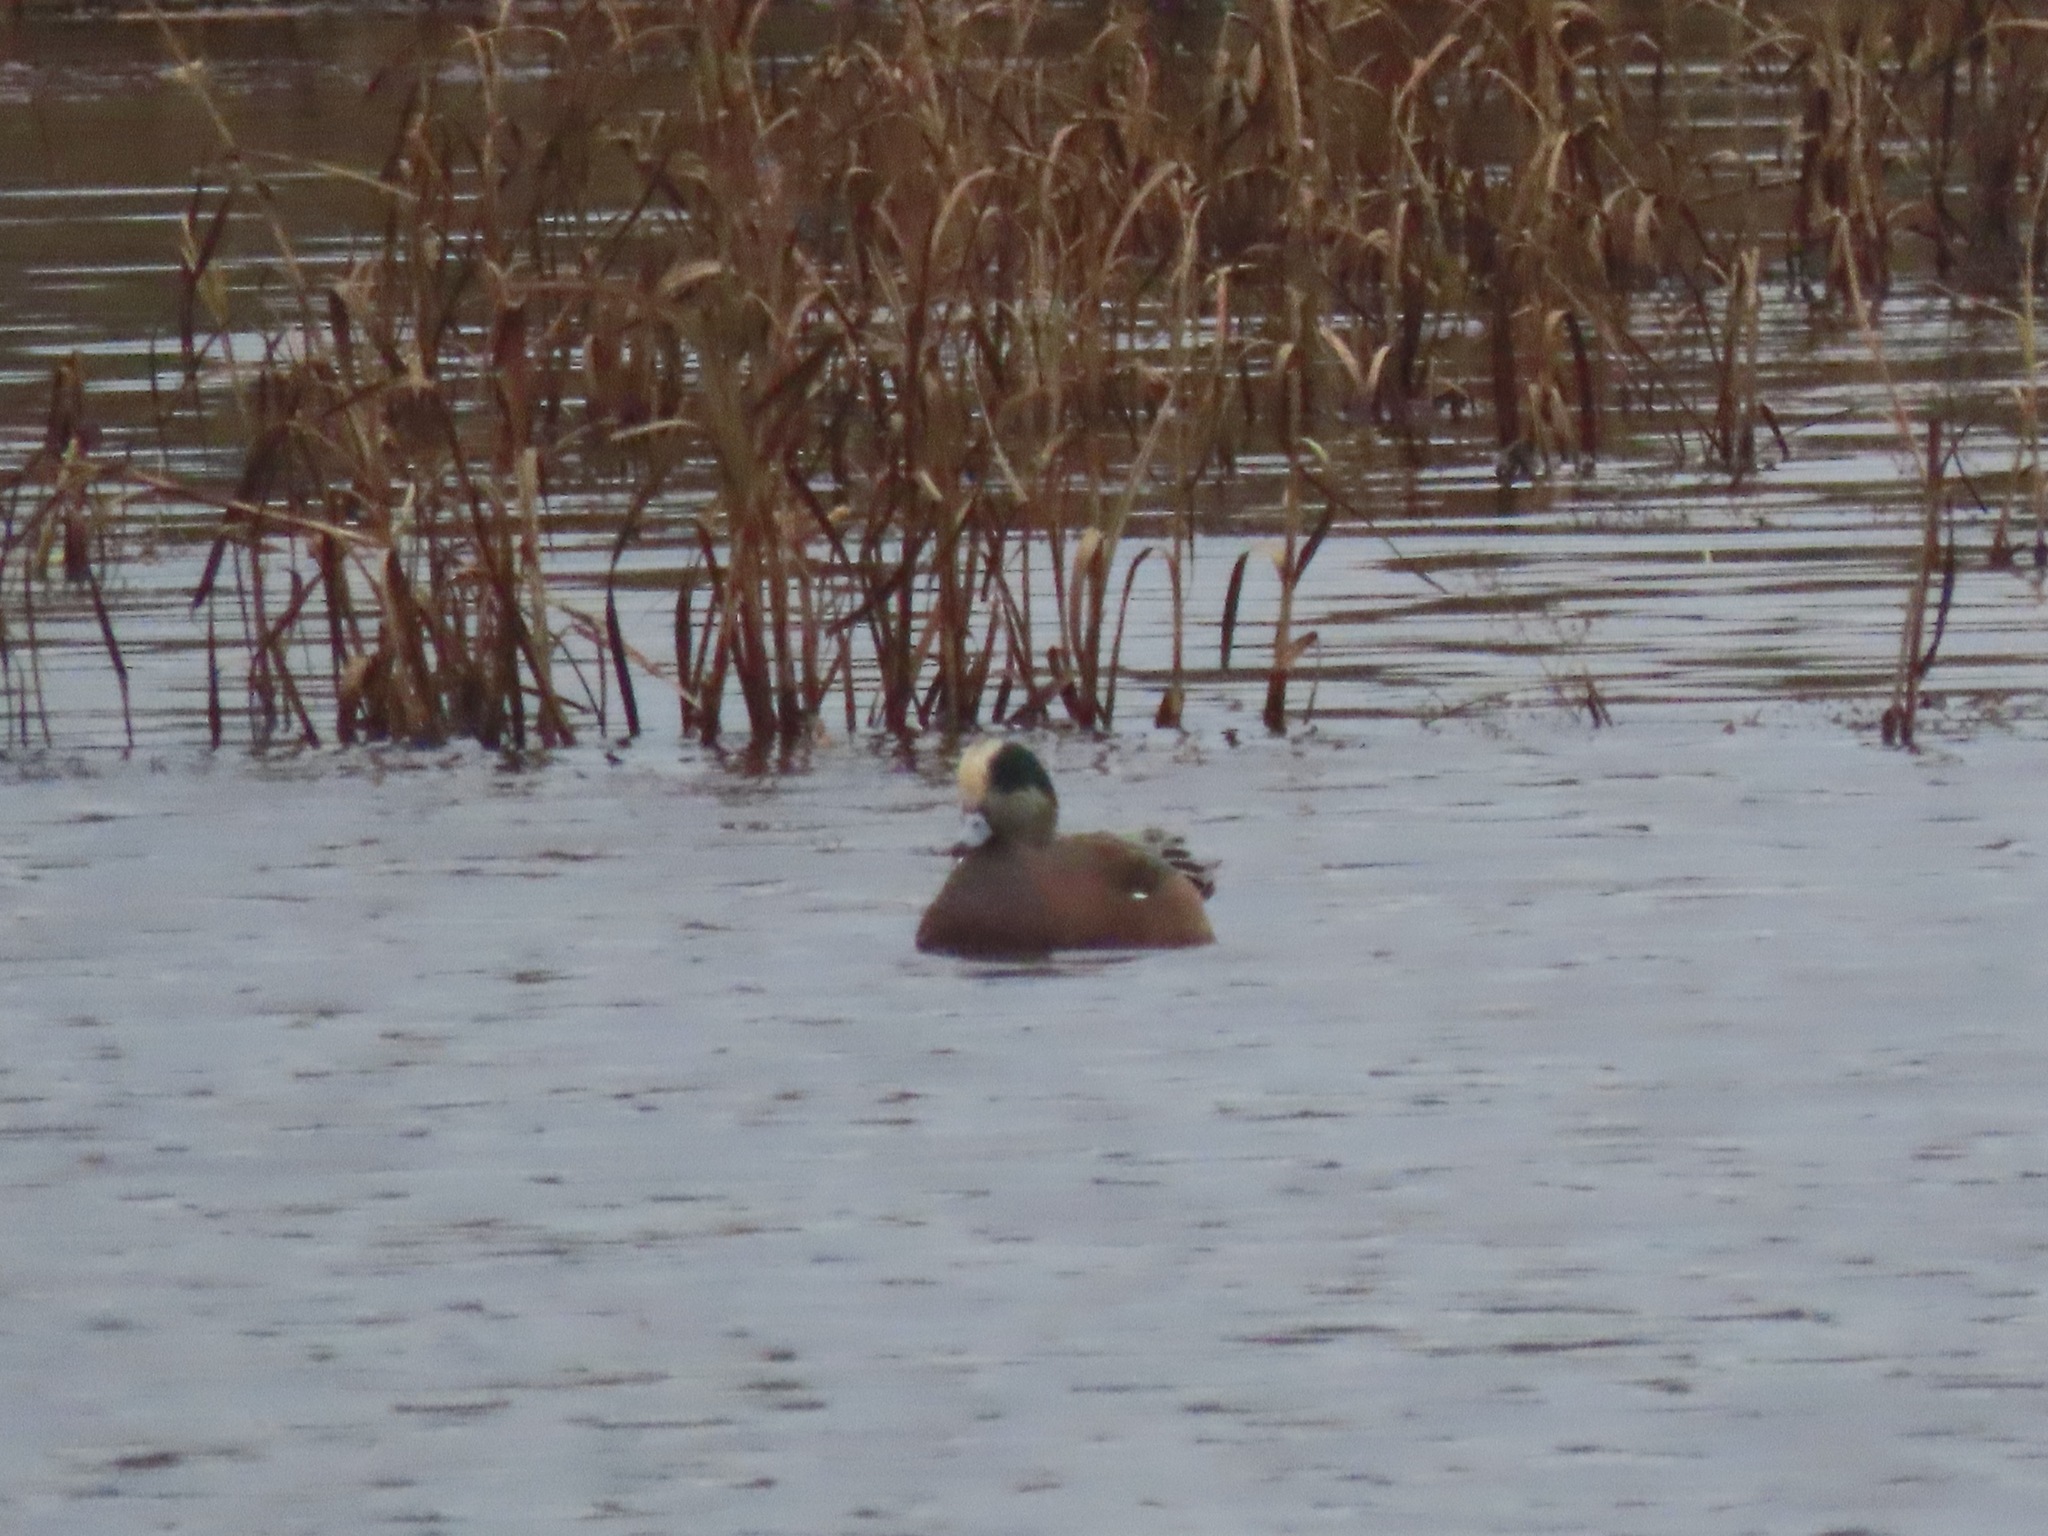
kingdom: Animalia
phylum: Chordata
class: Aves
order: Anseriformes
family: Anatidae
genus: Mareca
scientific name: Mareca americana
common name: American wigeon
